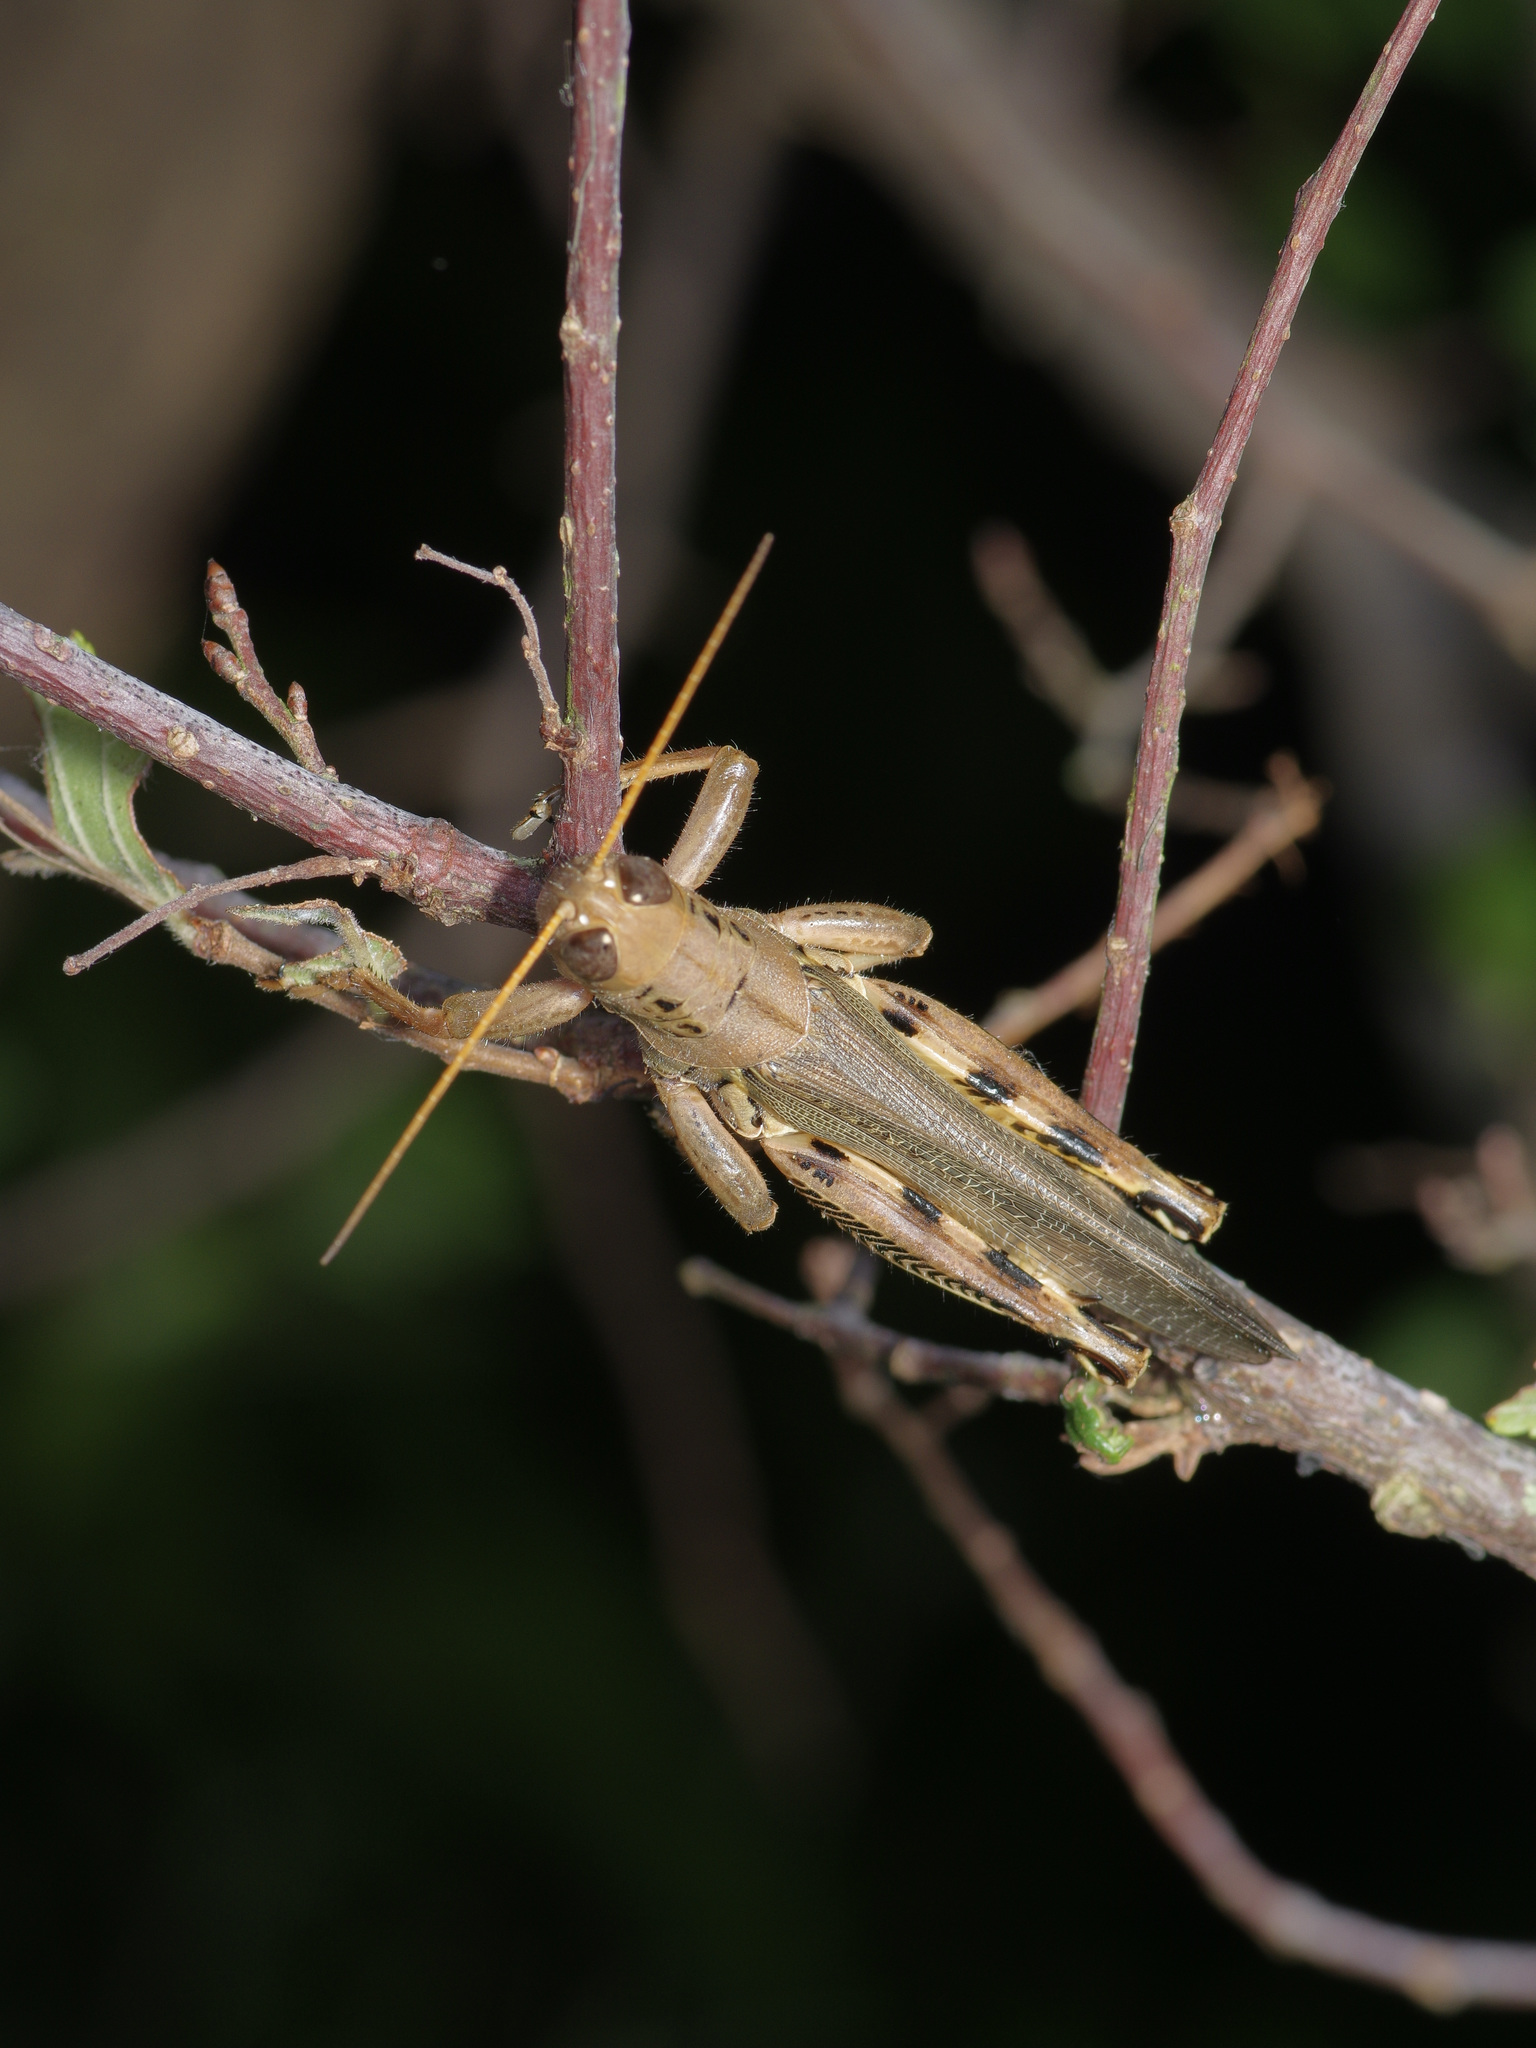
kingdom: Animalia
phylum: Arthropoda
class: Insecta
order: Orthoptera
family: Acrididae
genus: Melanoplus
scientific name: Melanoplus differentialis
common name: Differential grasshopper
